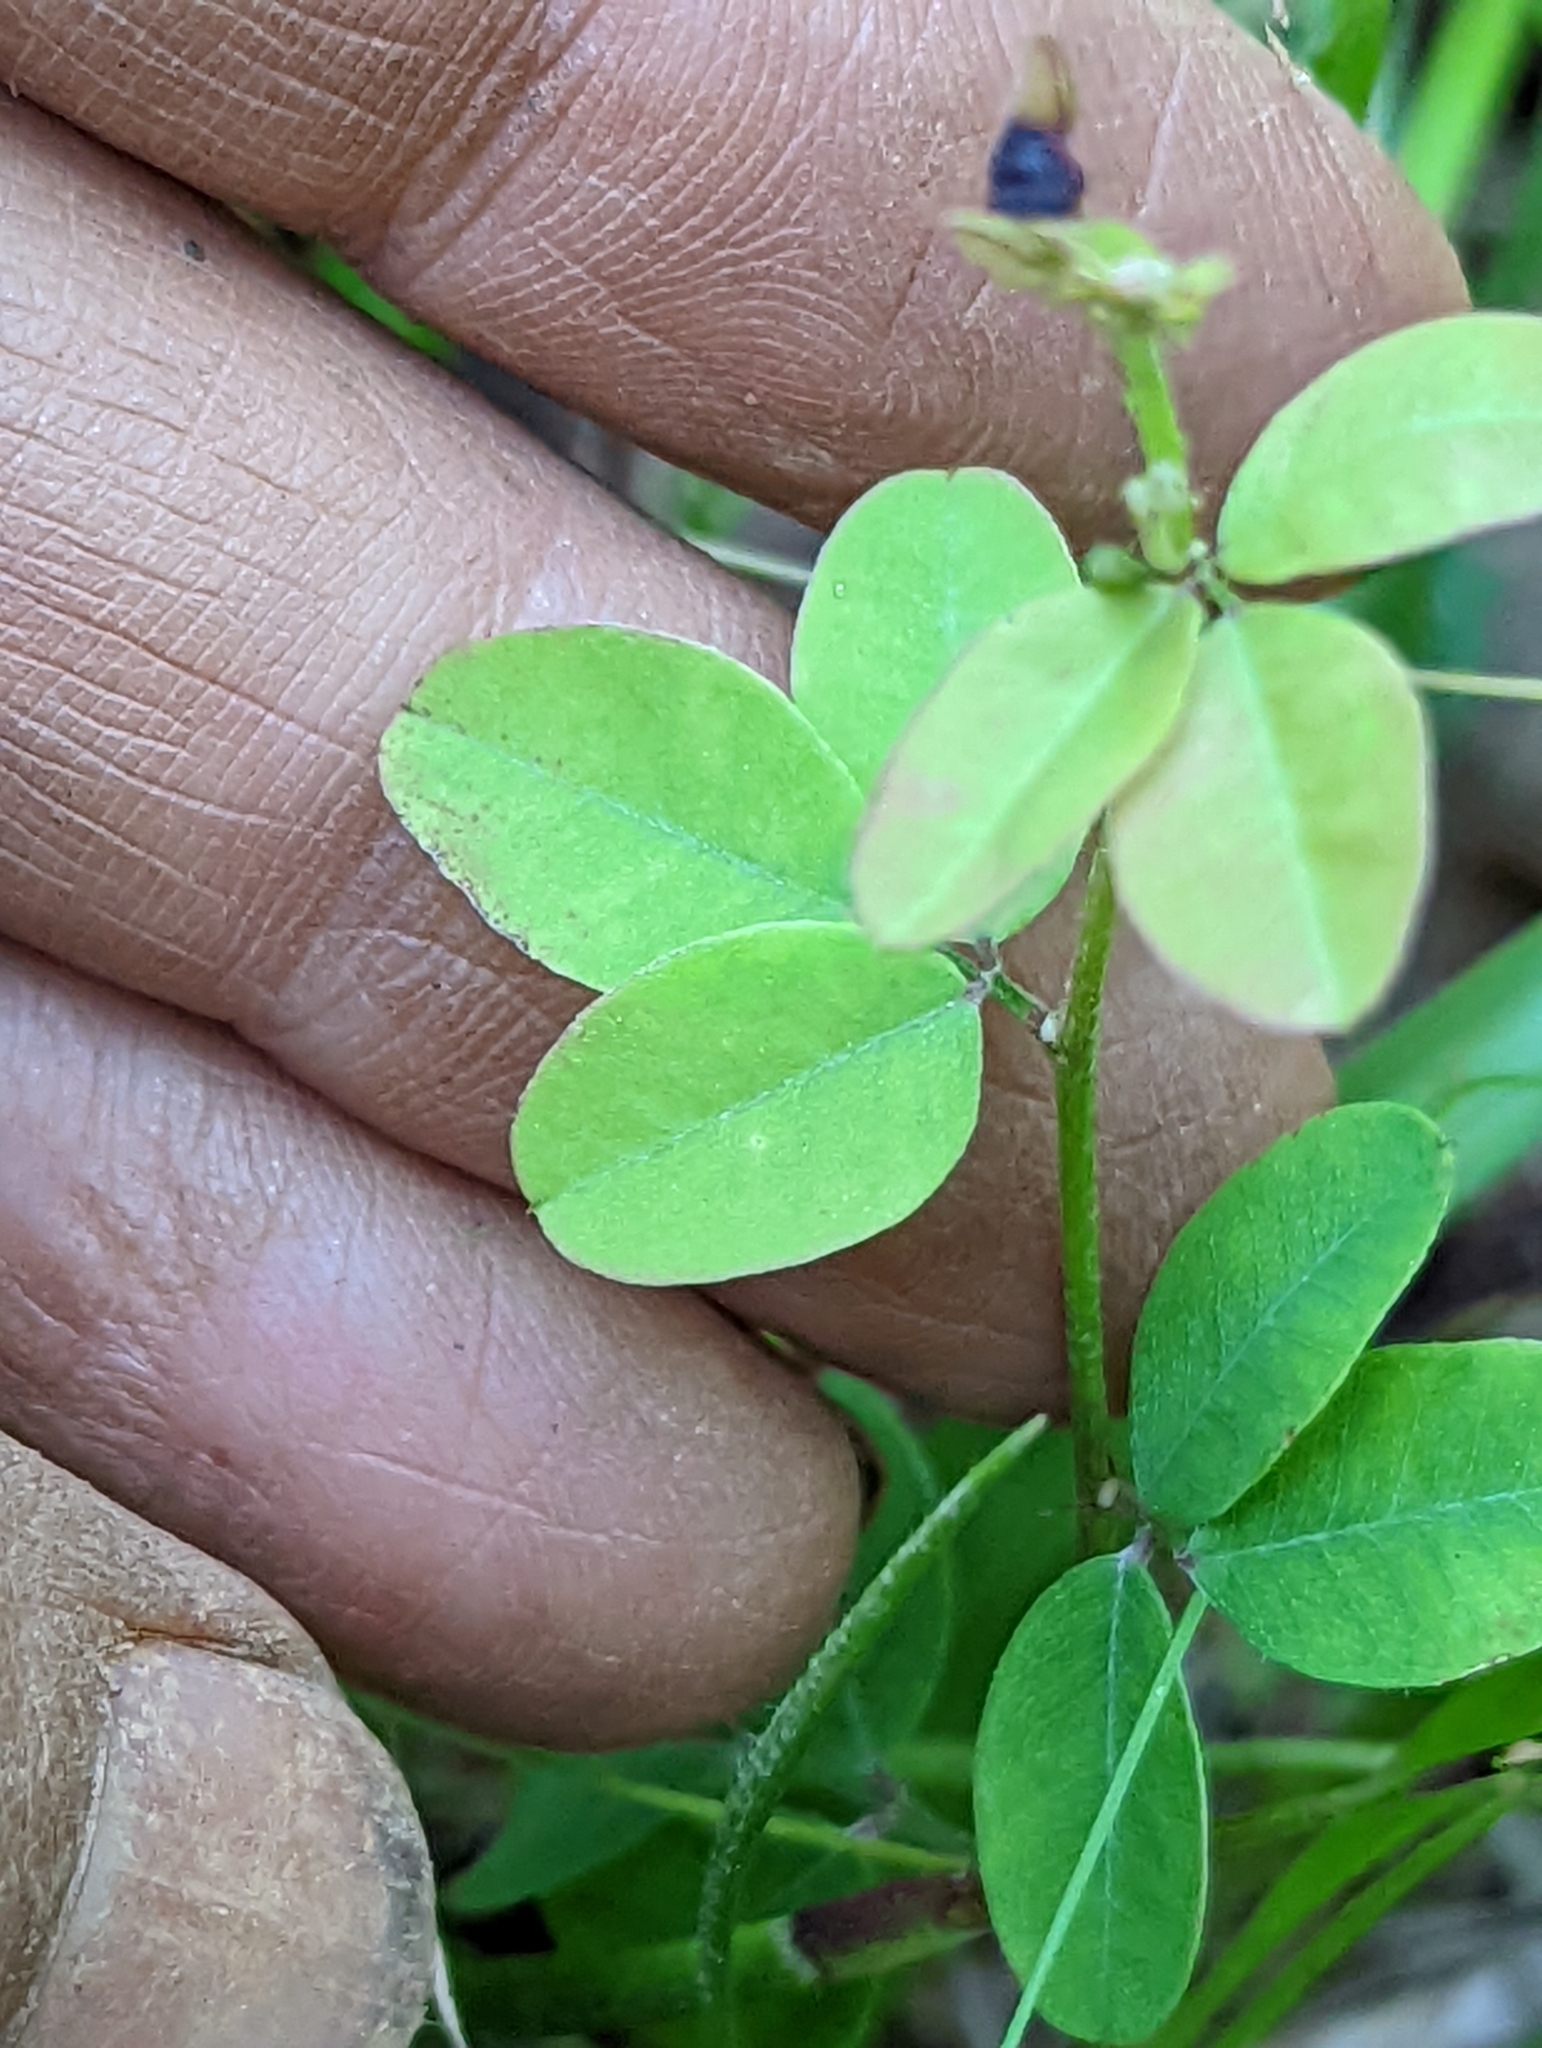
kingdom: Plantae
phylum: Tracheophyta
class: Magnoliopsida
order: Fabales
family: Fabaceae
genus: Lespedeza
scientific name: Lespedeza repens
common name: Creeping bush-clover
